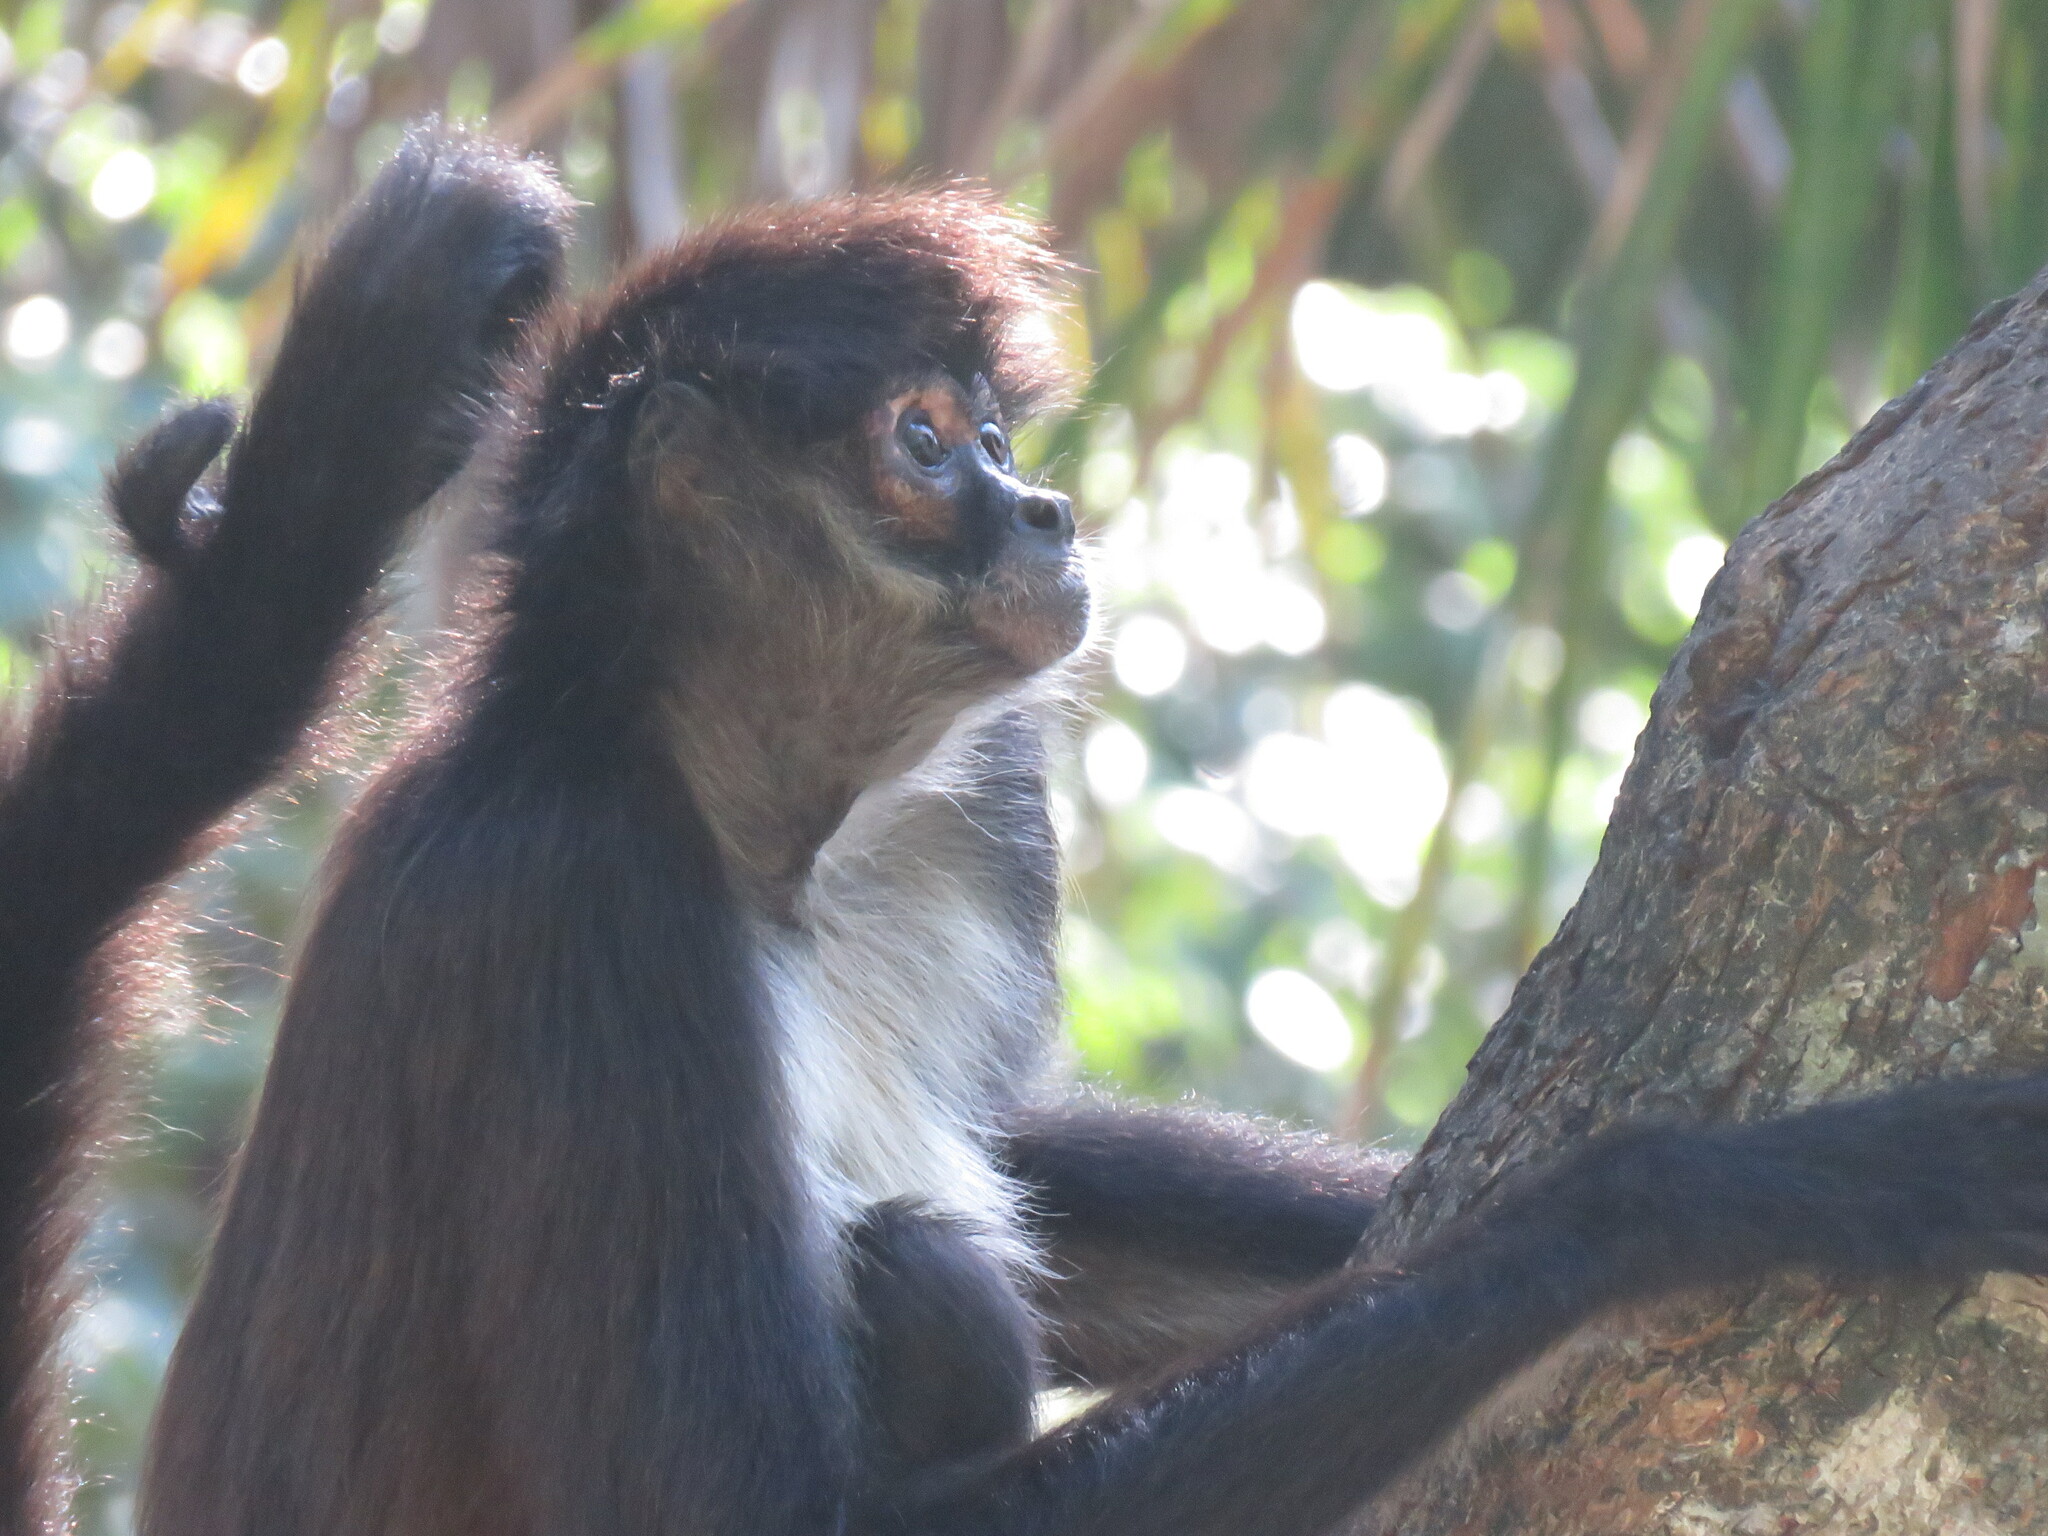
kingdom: Animalia
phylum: Chordata
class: Mammalia
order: Primates
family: Atelidae
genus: Ateles
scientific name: Ateles geoffroyi
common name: Black-handed spider monkey
